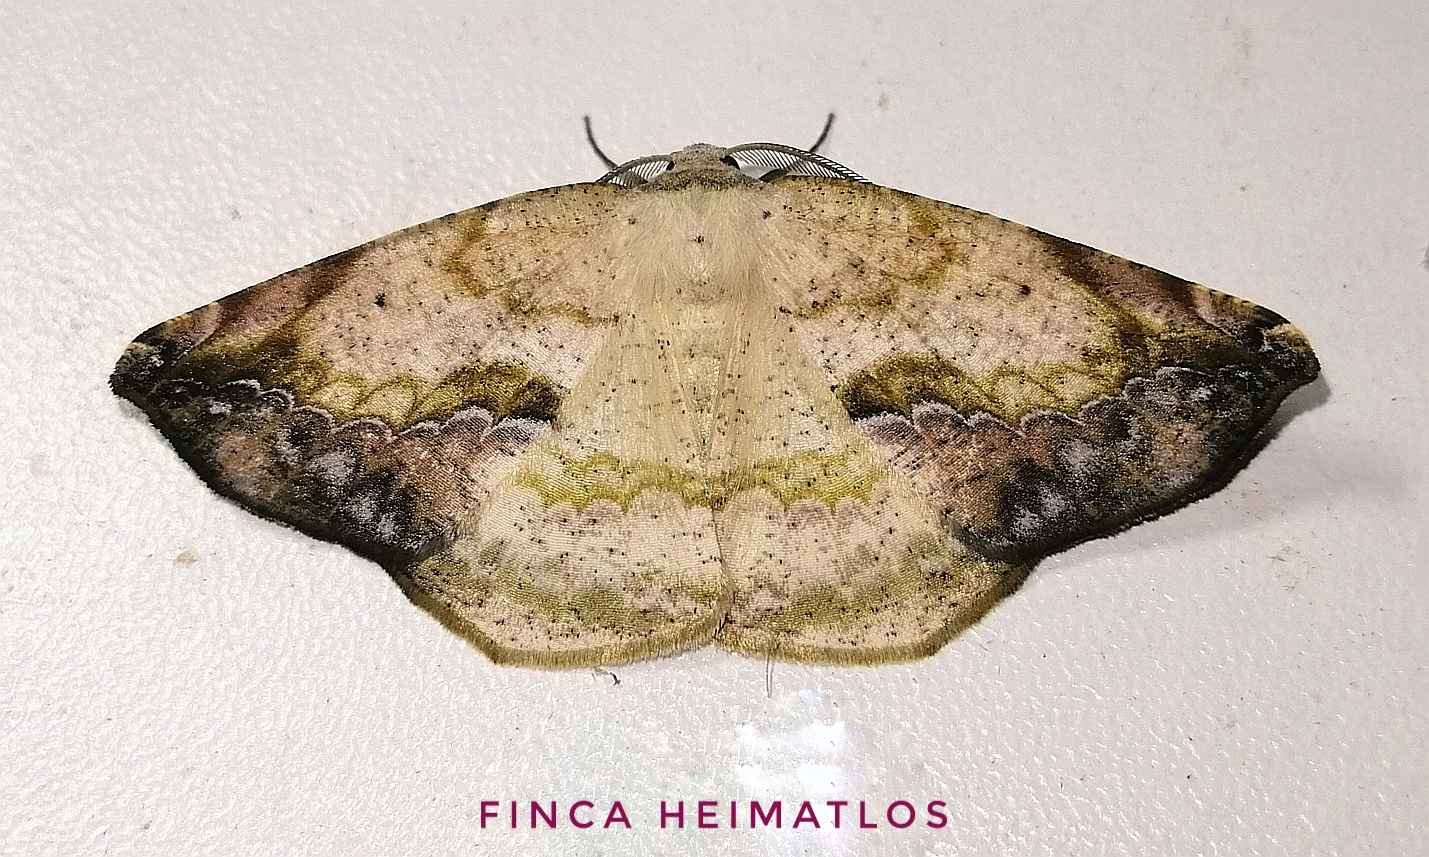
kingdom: Animalia
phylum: Arthropoda
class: Insecta
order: Lepidoptera
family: Geometridae
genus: Eusarca
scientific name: Eusarca nemora
